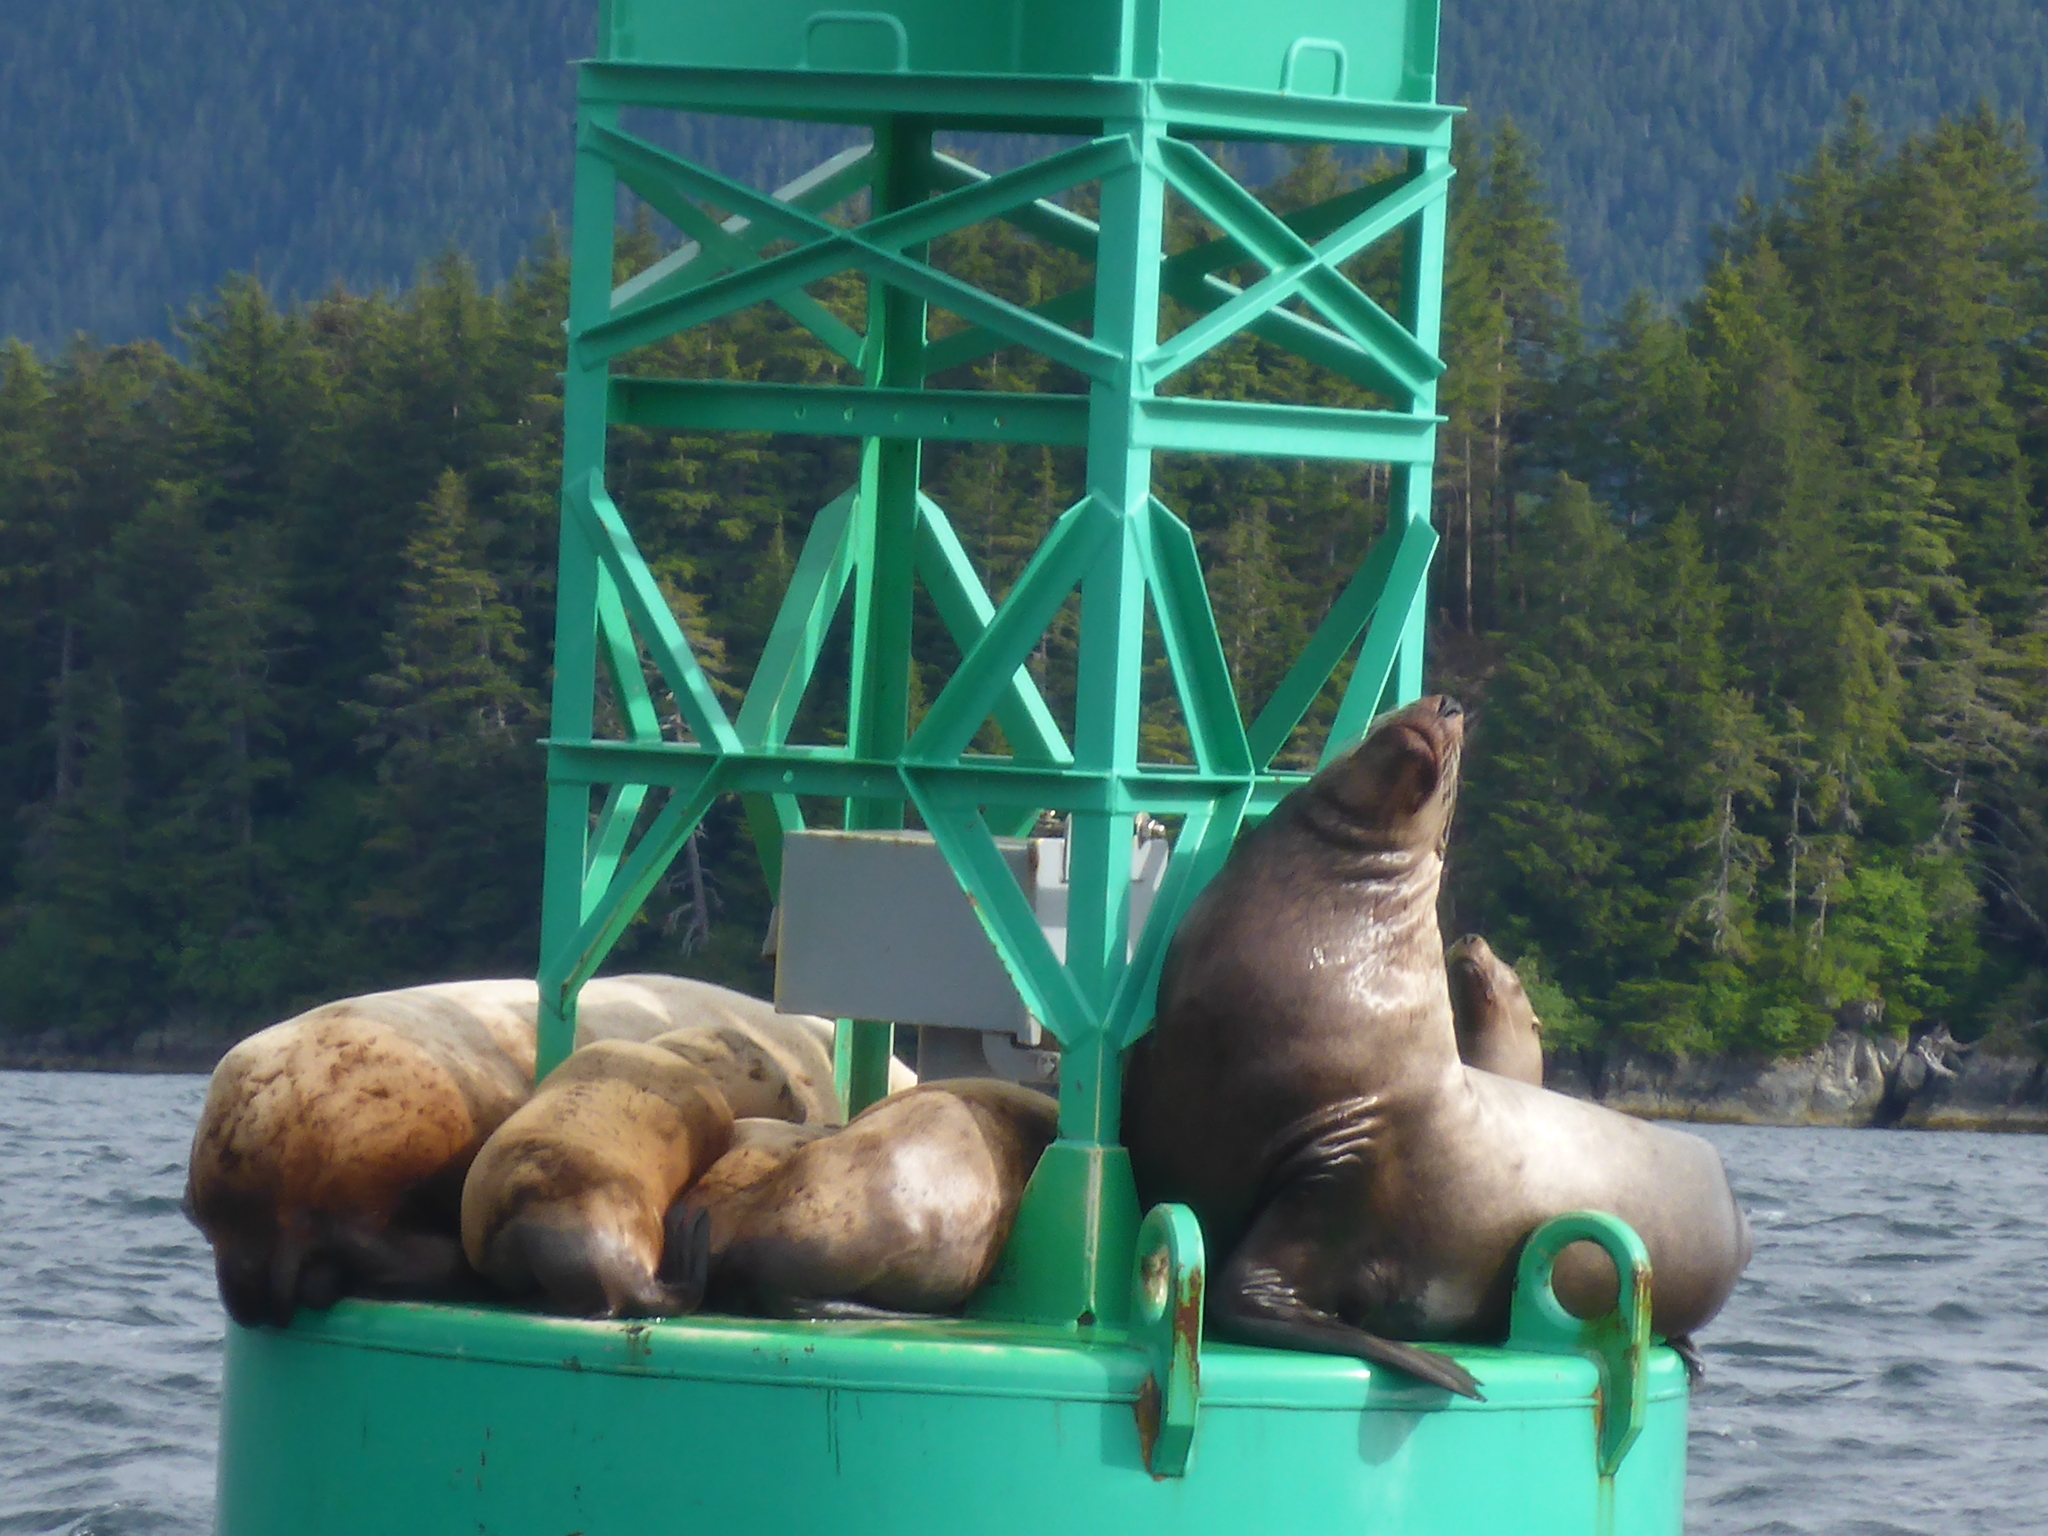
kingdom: Animalia
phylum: Chordata
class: Mammalia
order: Carnivora
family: Otariidae
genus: Eumetopias
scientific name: Eumetopias jubatus
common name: Steller sea lion
